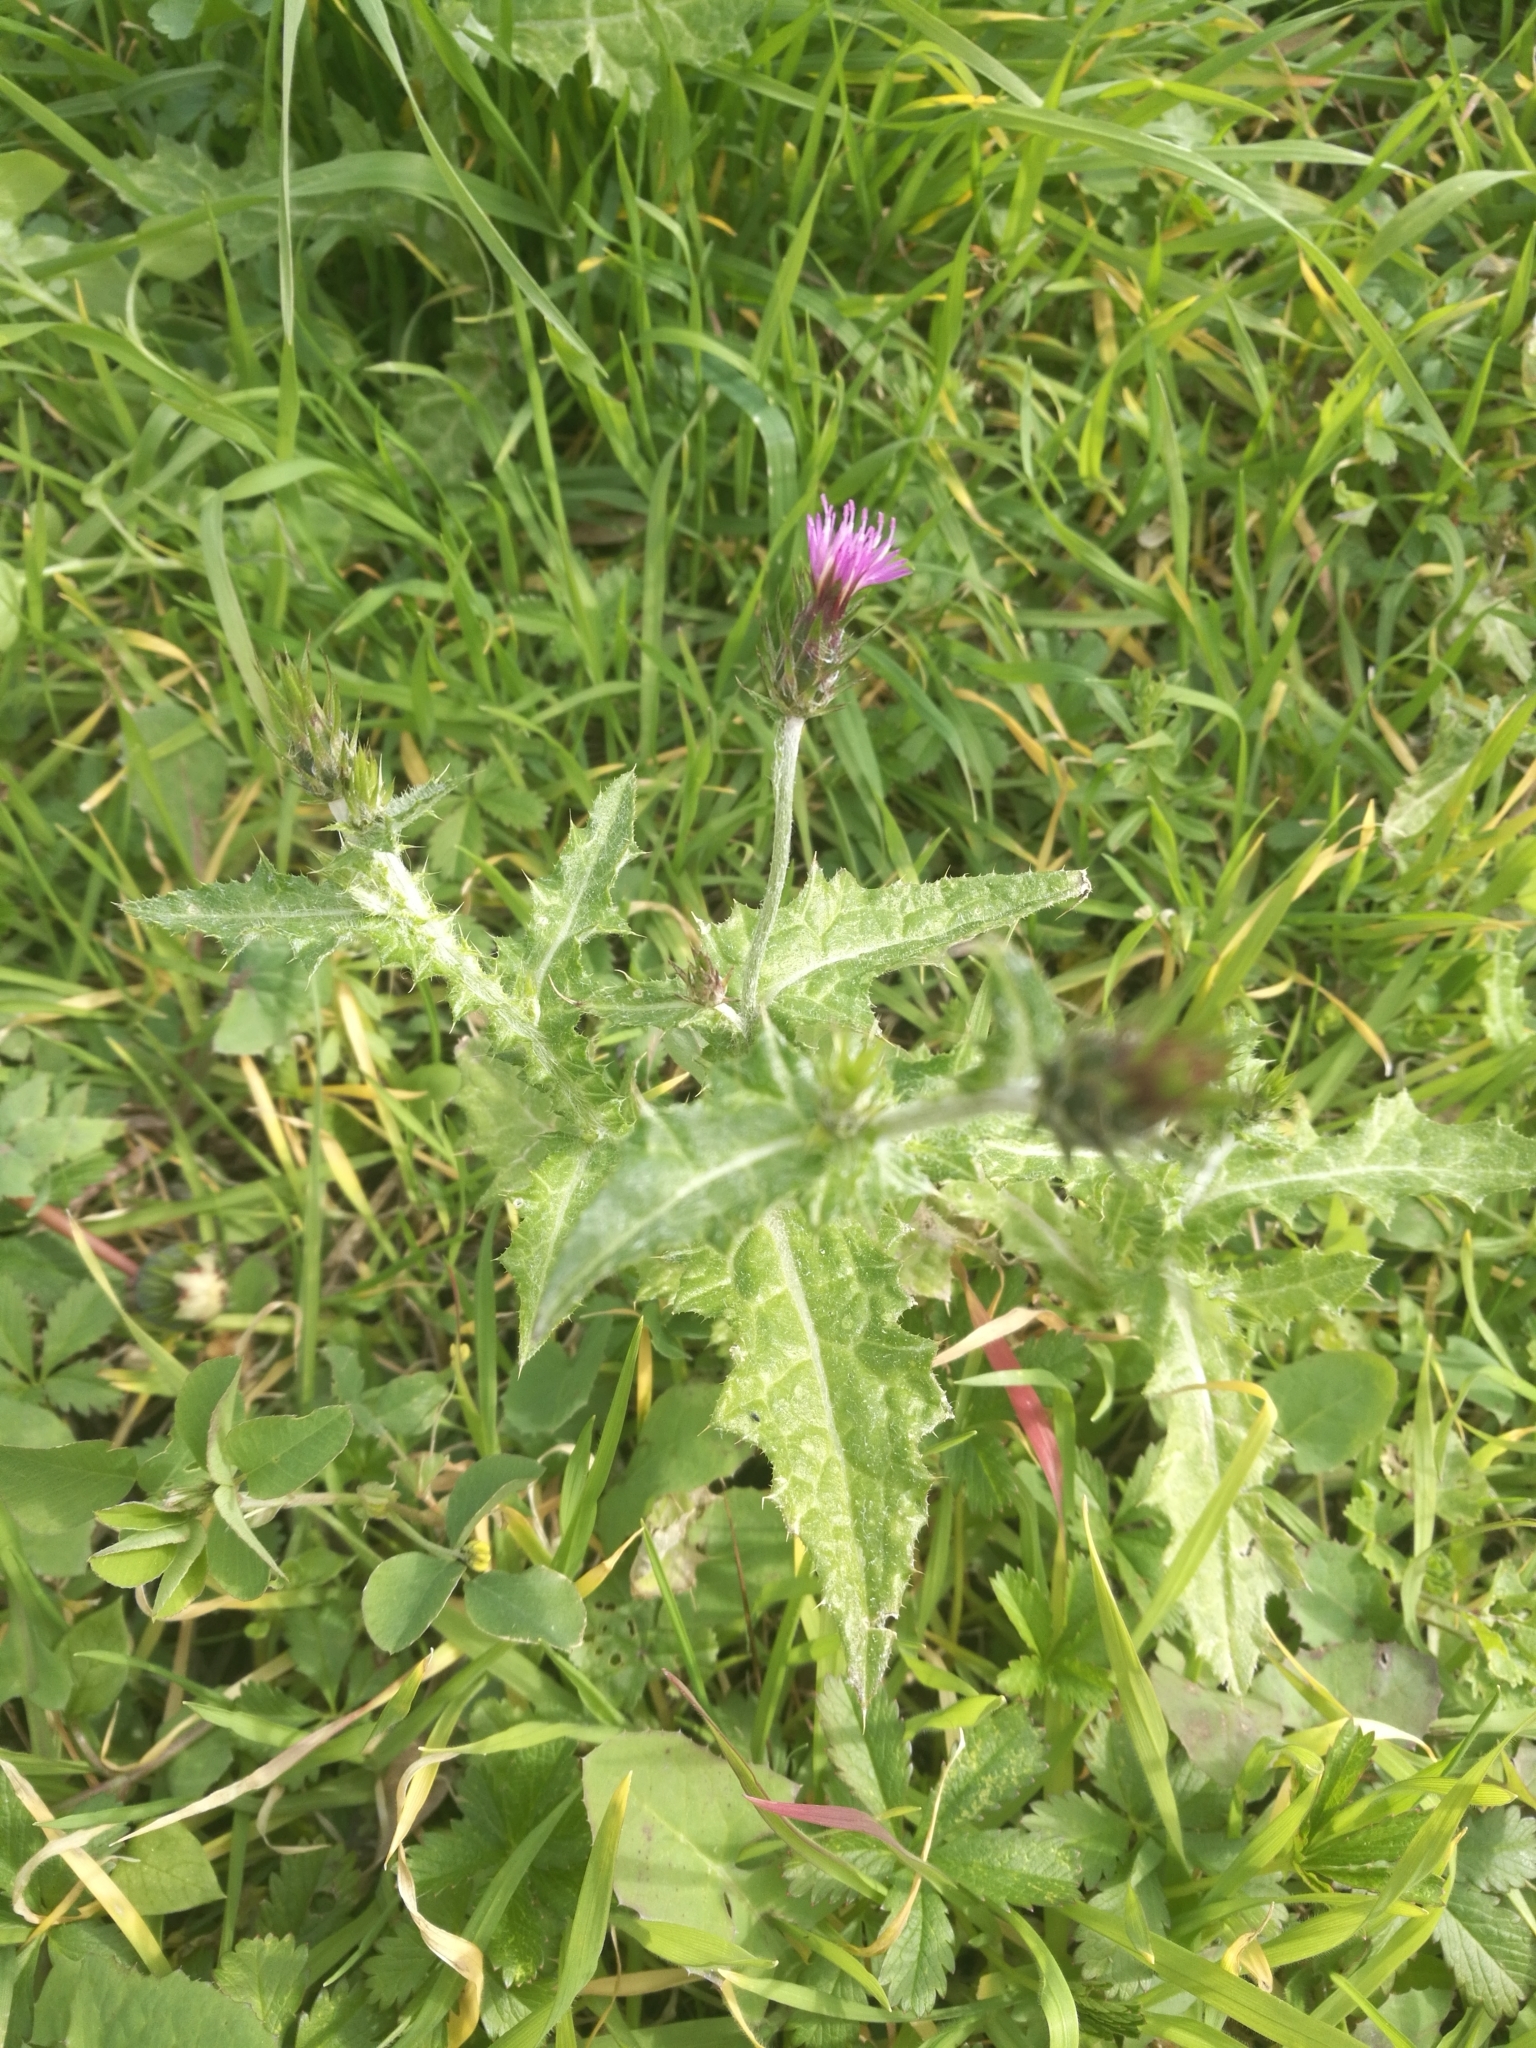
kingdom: Plantae
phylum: Tracheophyta
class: Magnoliopsida
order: Asterales
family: Asteraceae
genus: Carduus
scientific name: Carduus pycnocephalus
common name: Plymouth thistle
